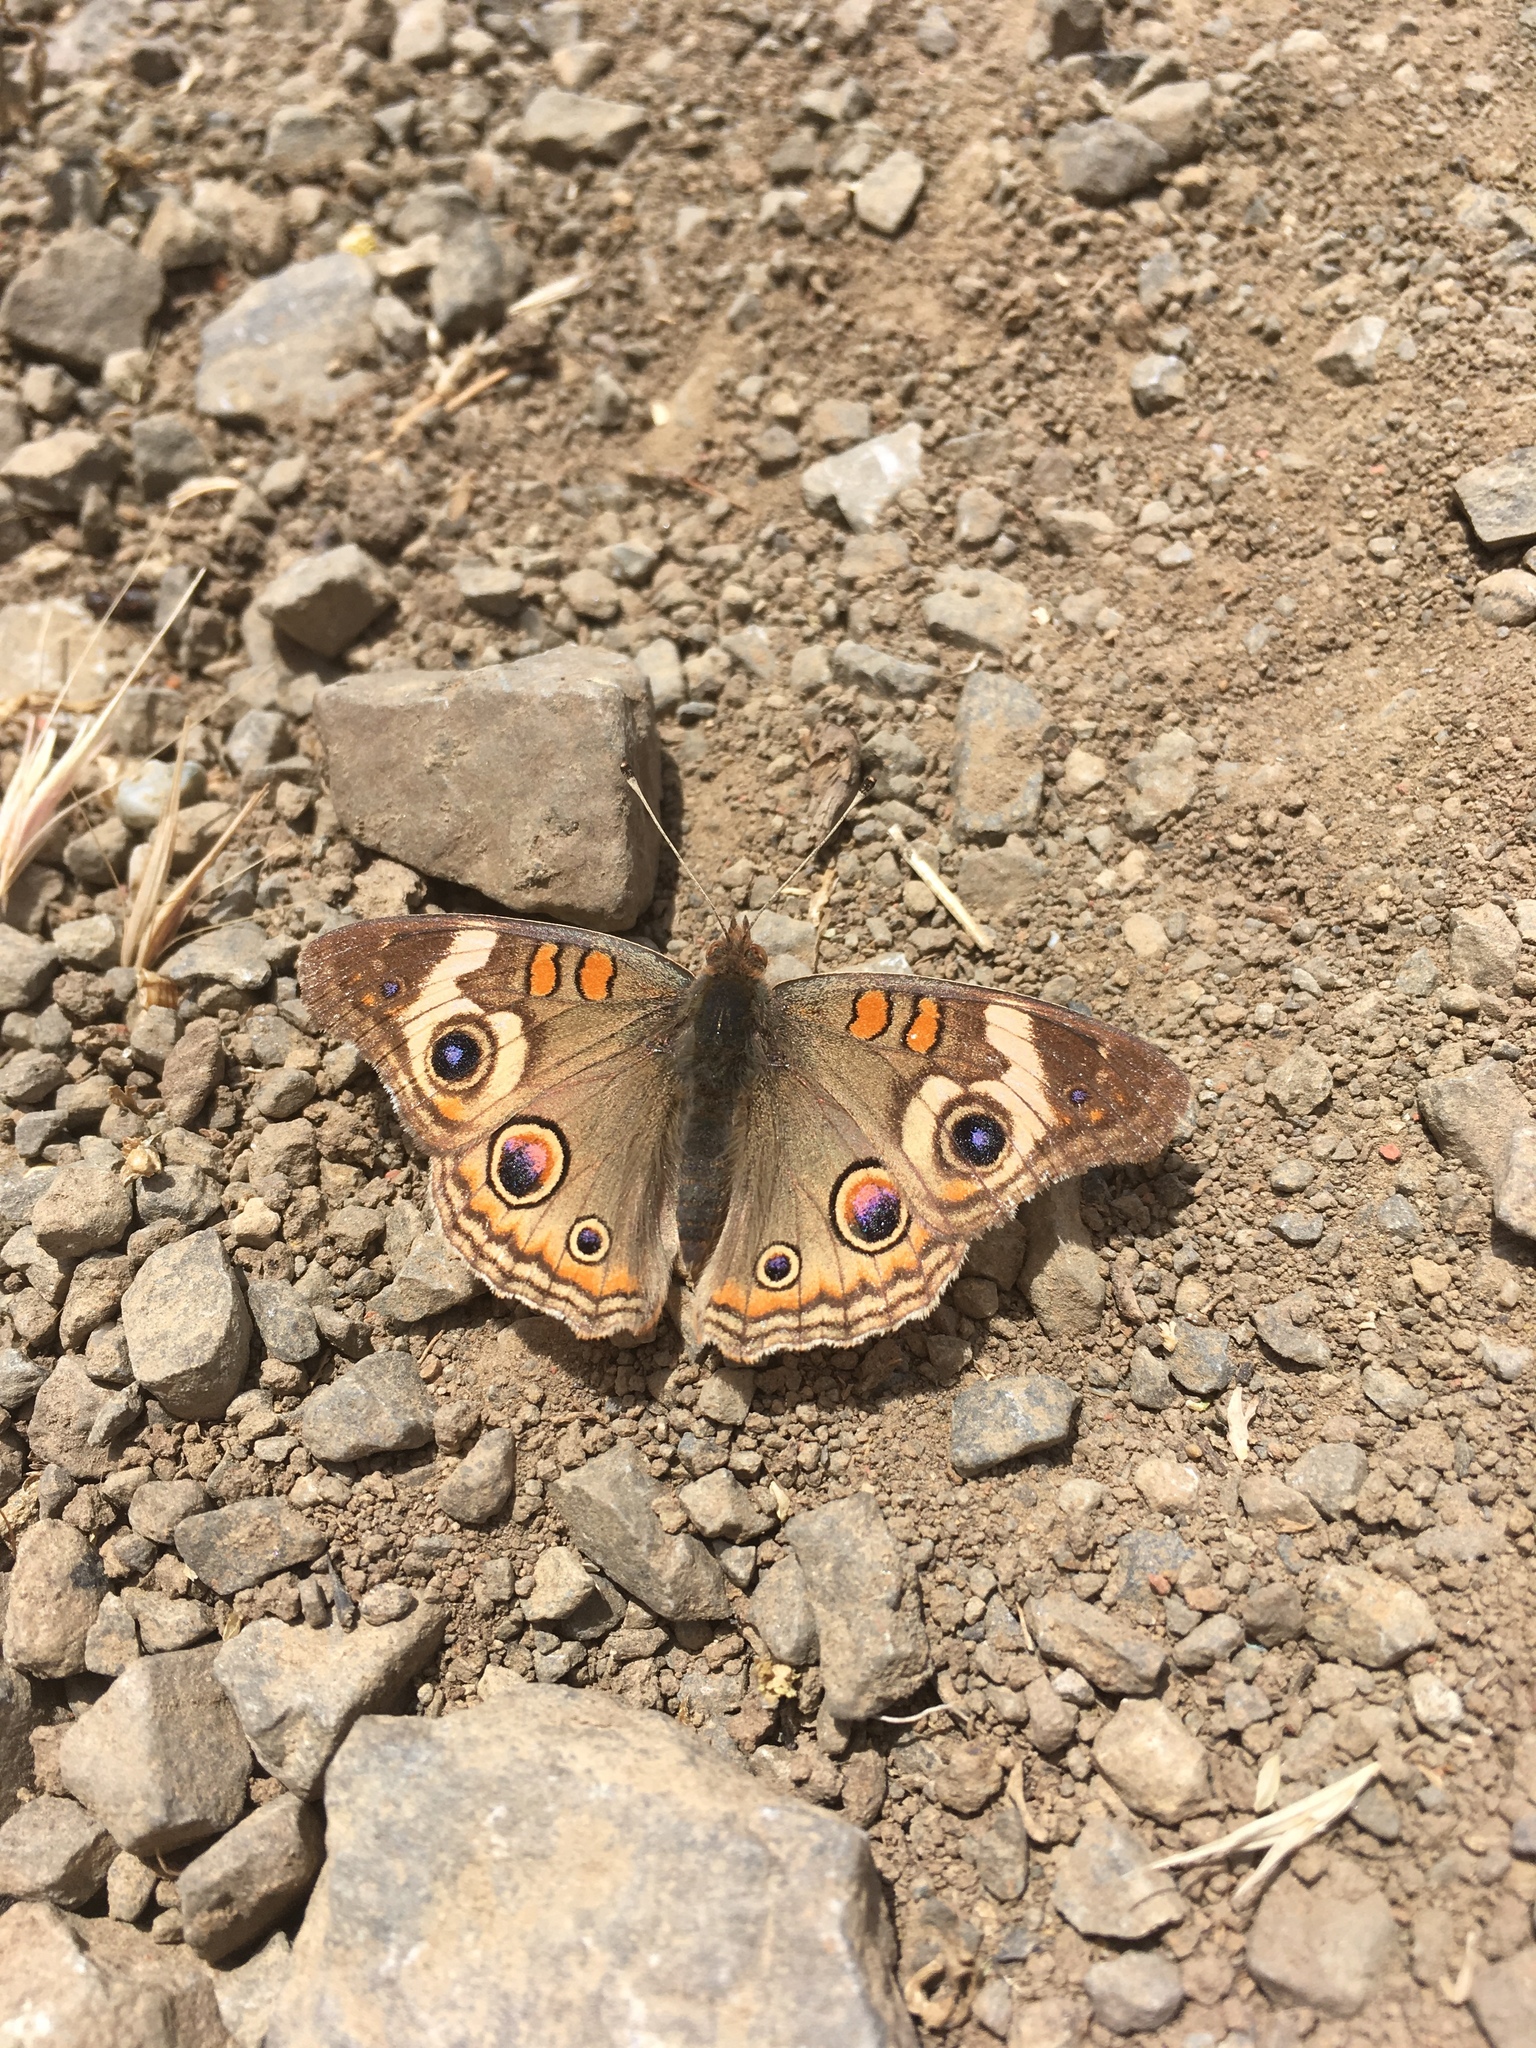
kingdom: Animalia
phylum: Arthropoda
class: Insecta
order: Lepidoptera
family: Nymphalidae
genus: Junonia
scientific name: Junonia grisea
